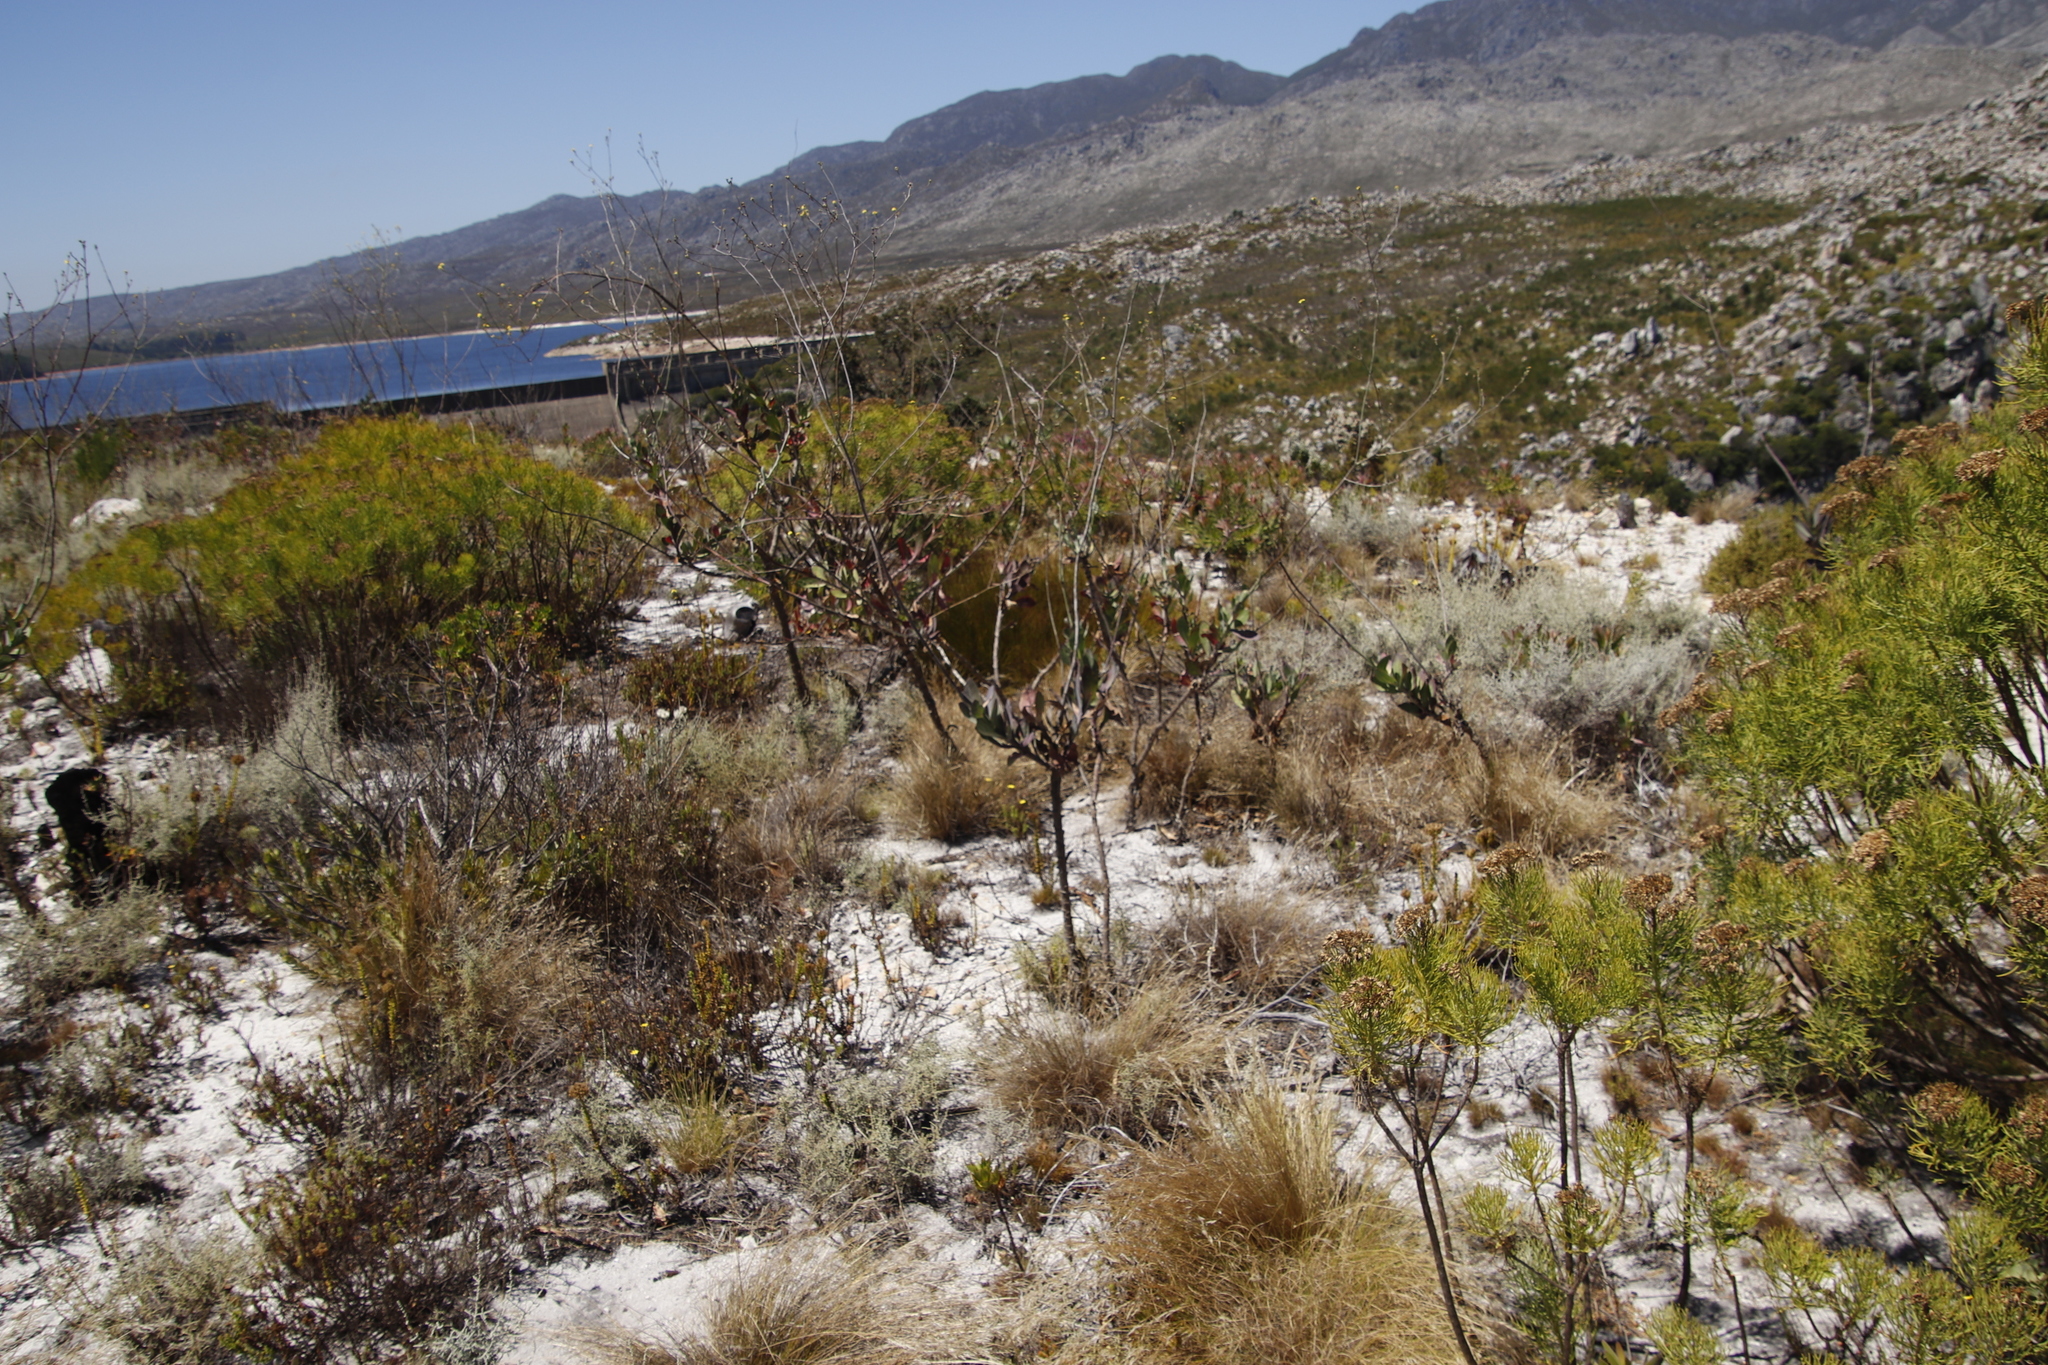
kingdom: Plantae
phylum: Tracheophyta
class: Magnoliopsida
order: Asterales
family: Asteraceae
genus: Othonna
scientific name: Othonna quinquedentata
